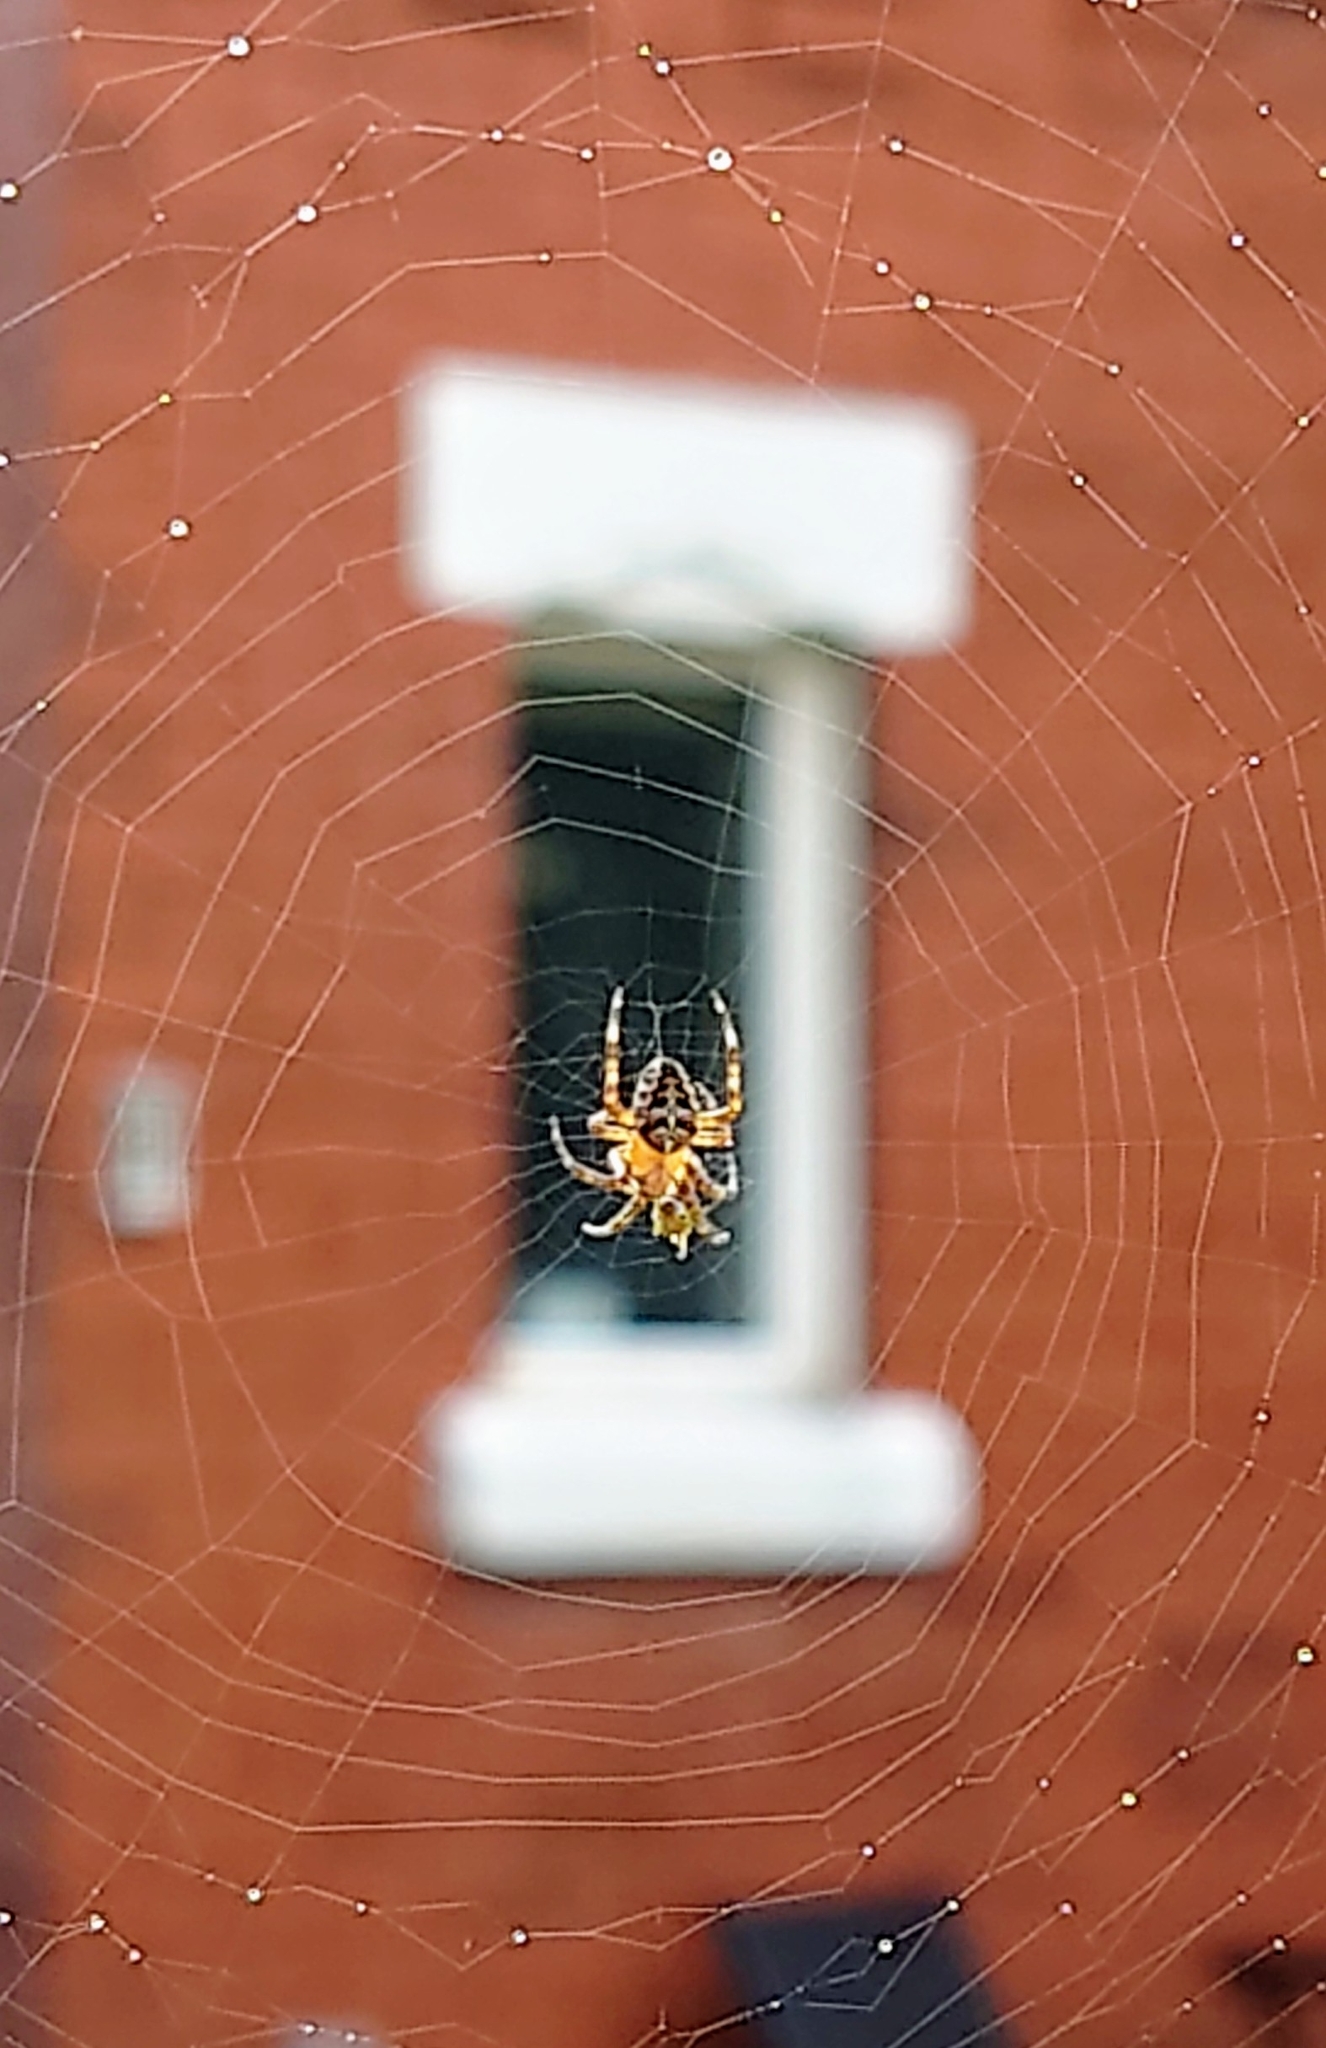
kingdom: Animalia
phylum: Arthropoda
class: Arachnida
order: Araneae
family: Araneidae
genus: Araneus
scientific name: Araneus diadematus
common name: Cross orbweaver
